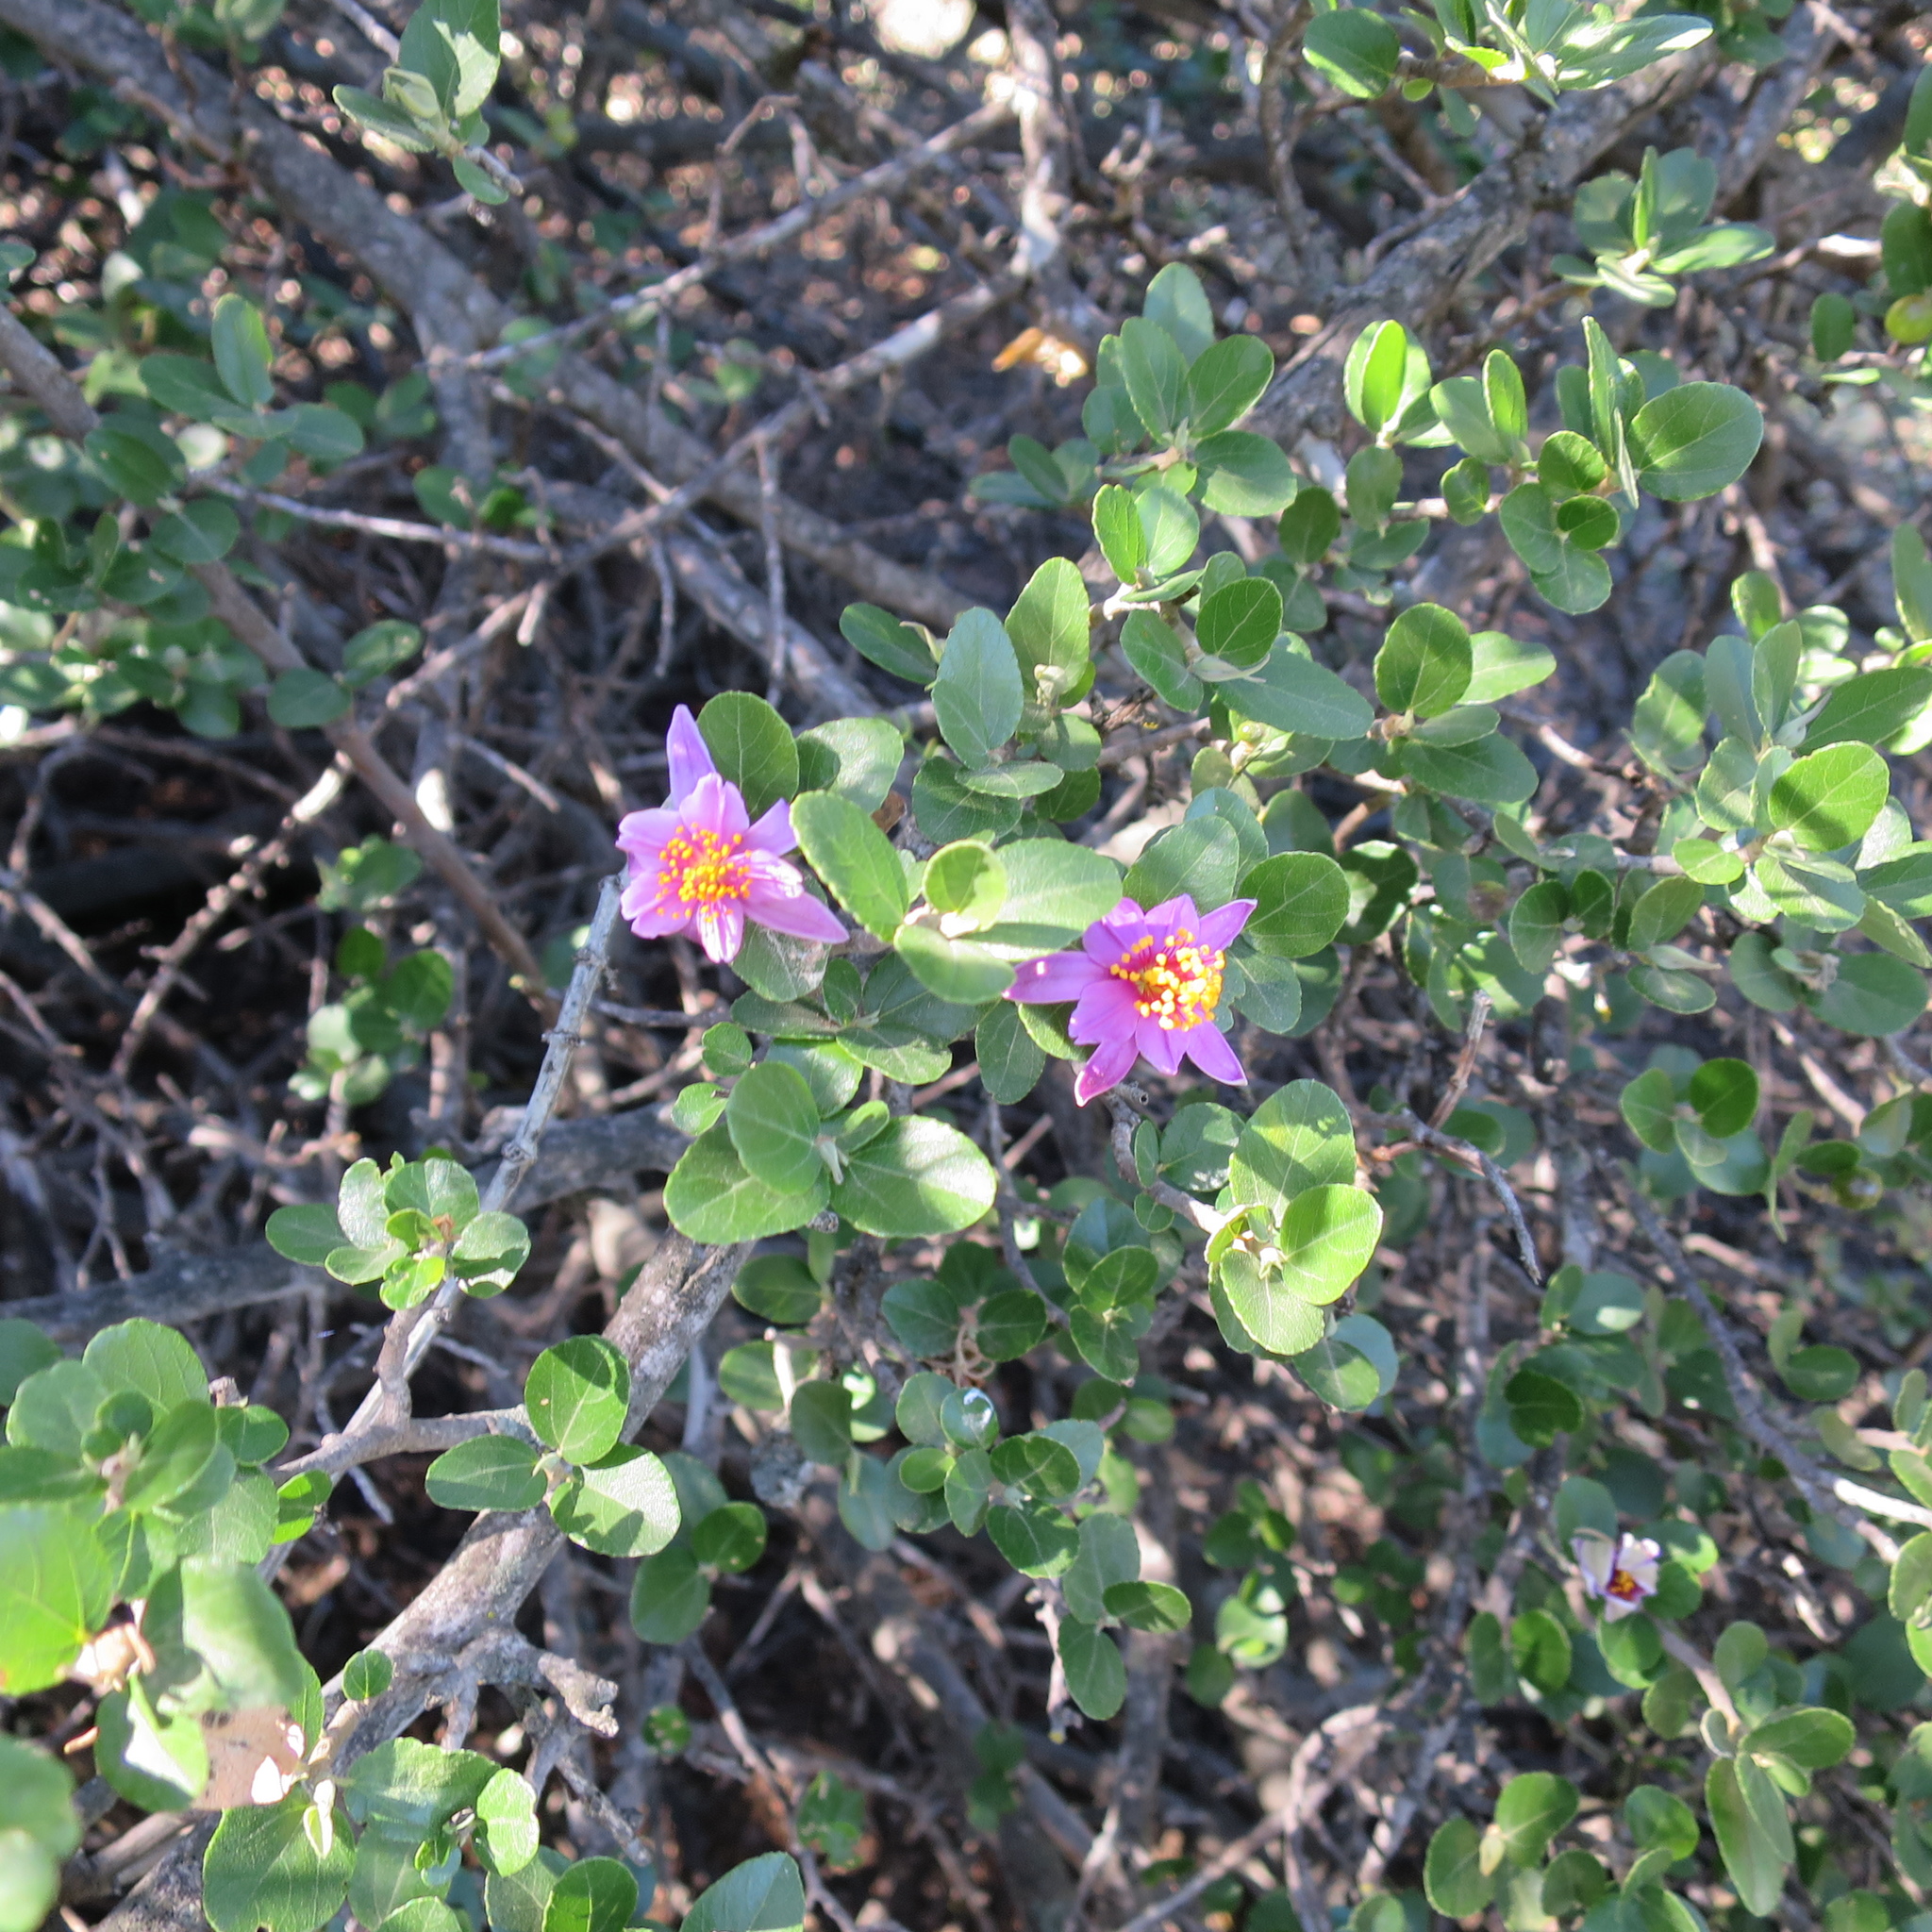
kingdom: Plantae
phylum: Tracheophyta
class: Magnoliopsida
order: Malvales
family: Malvaceae
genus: Grewia
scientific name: Grewia robusta
